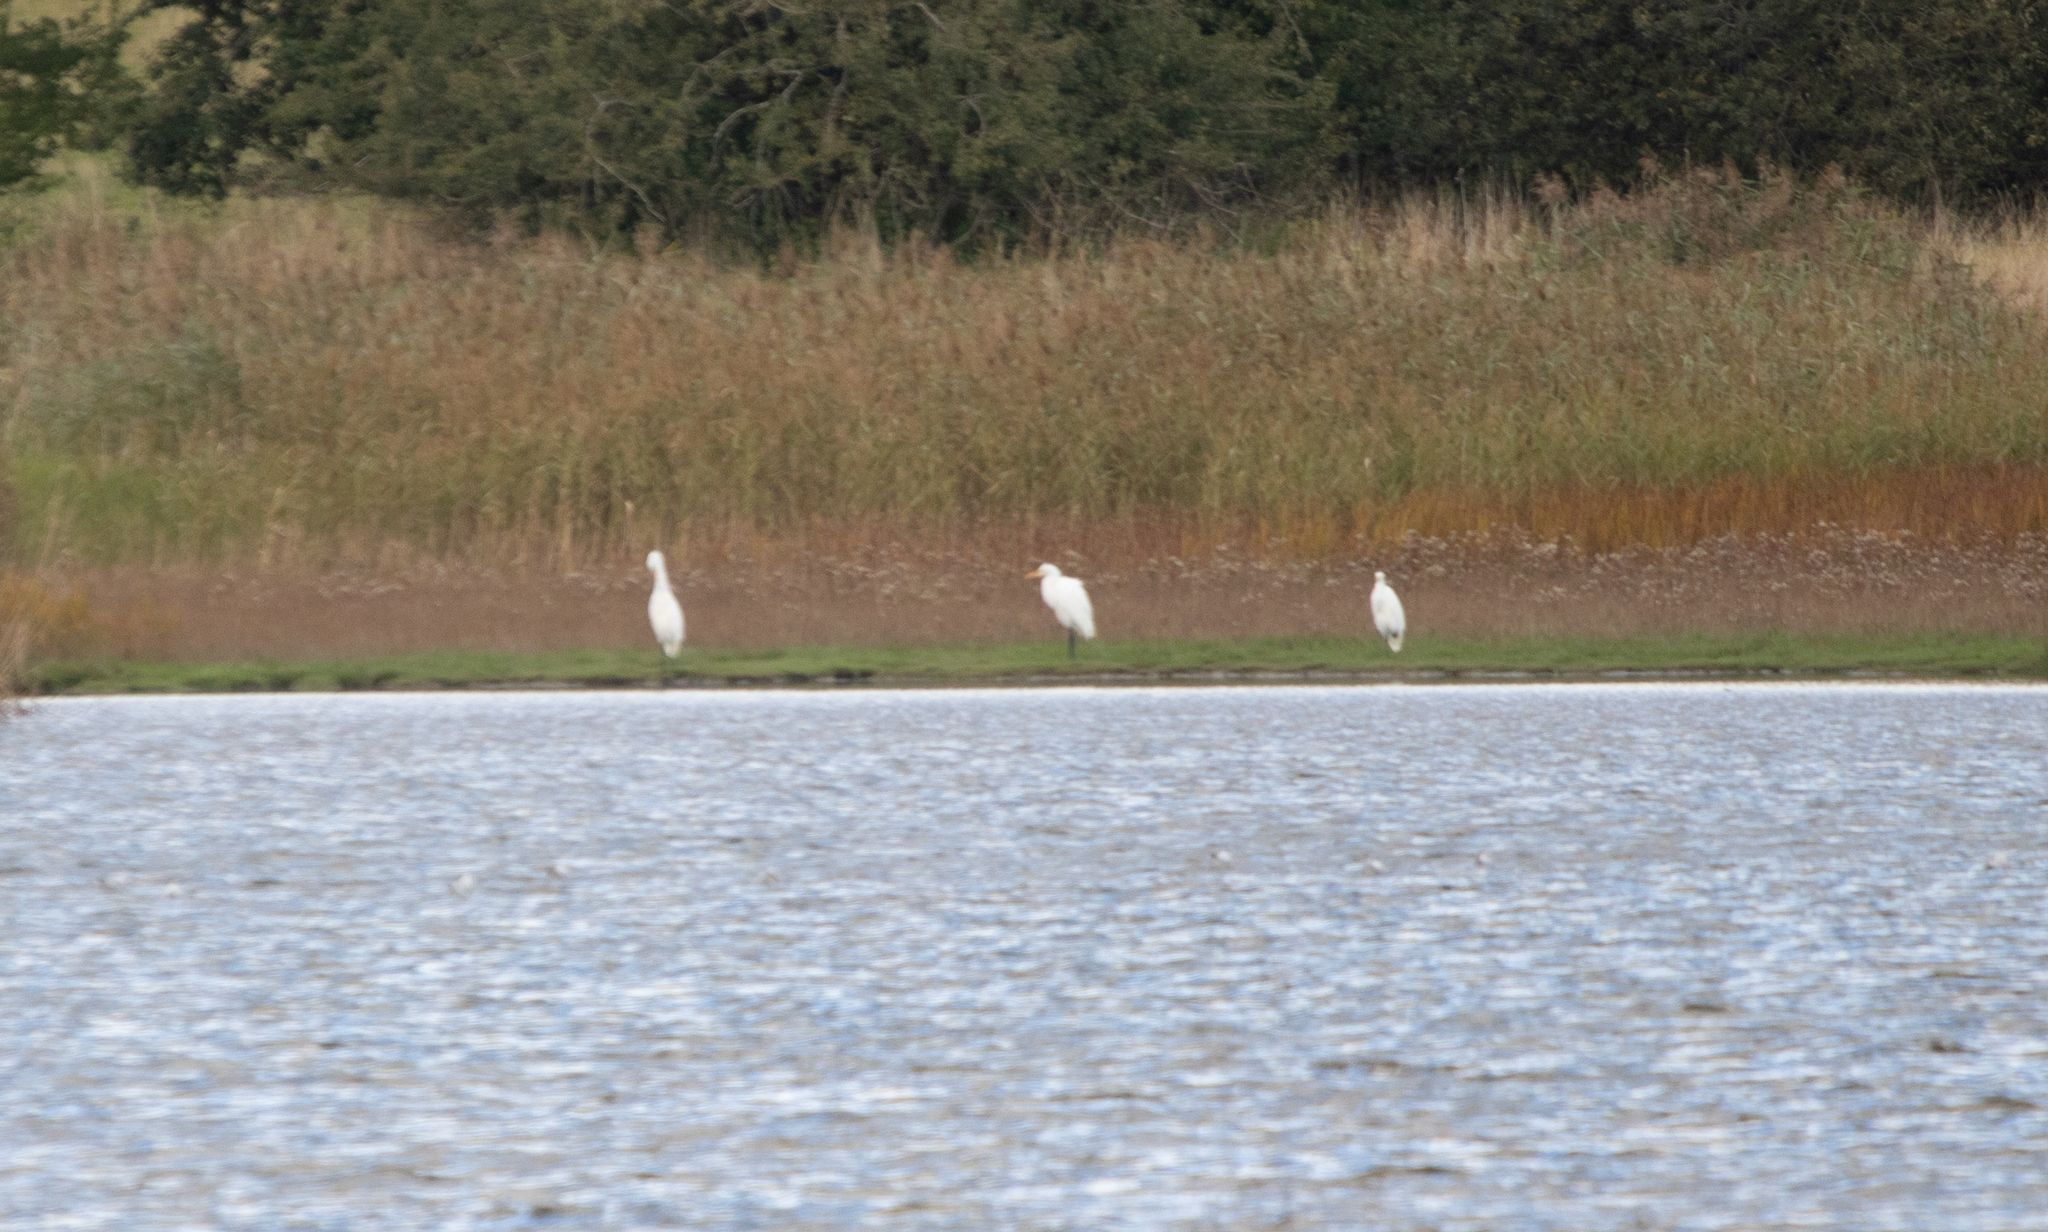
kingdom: Animalia
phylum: Chordata
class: Aves
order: Pelecaniformes
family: Ardeidae
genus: Ardea
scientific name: Ardea alba
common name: Great egret
